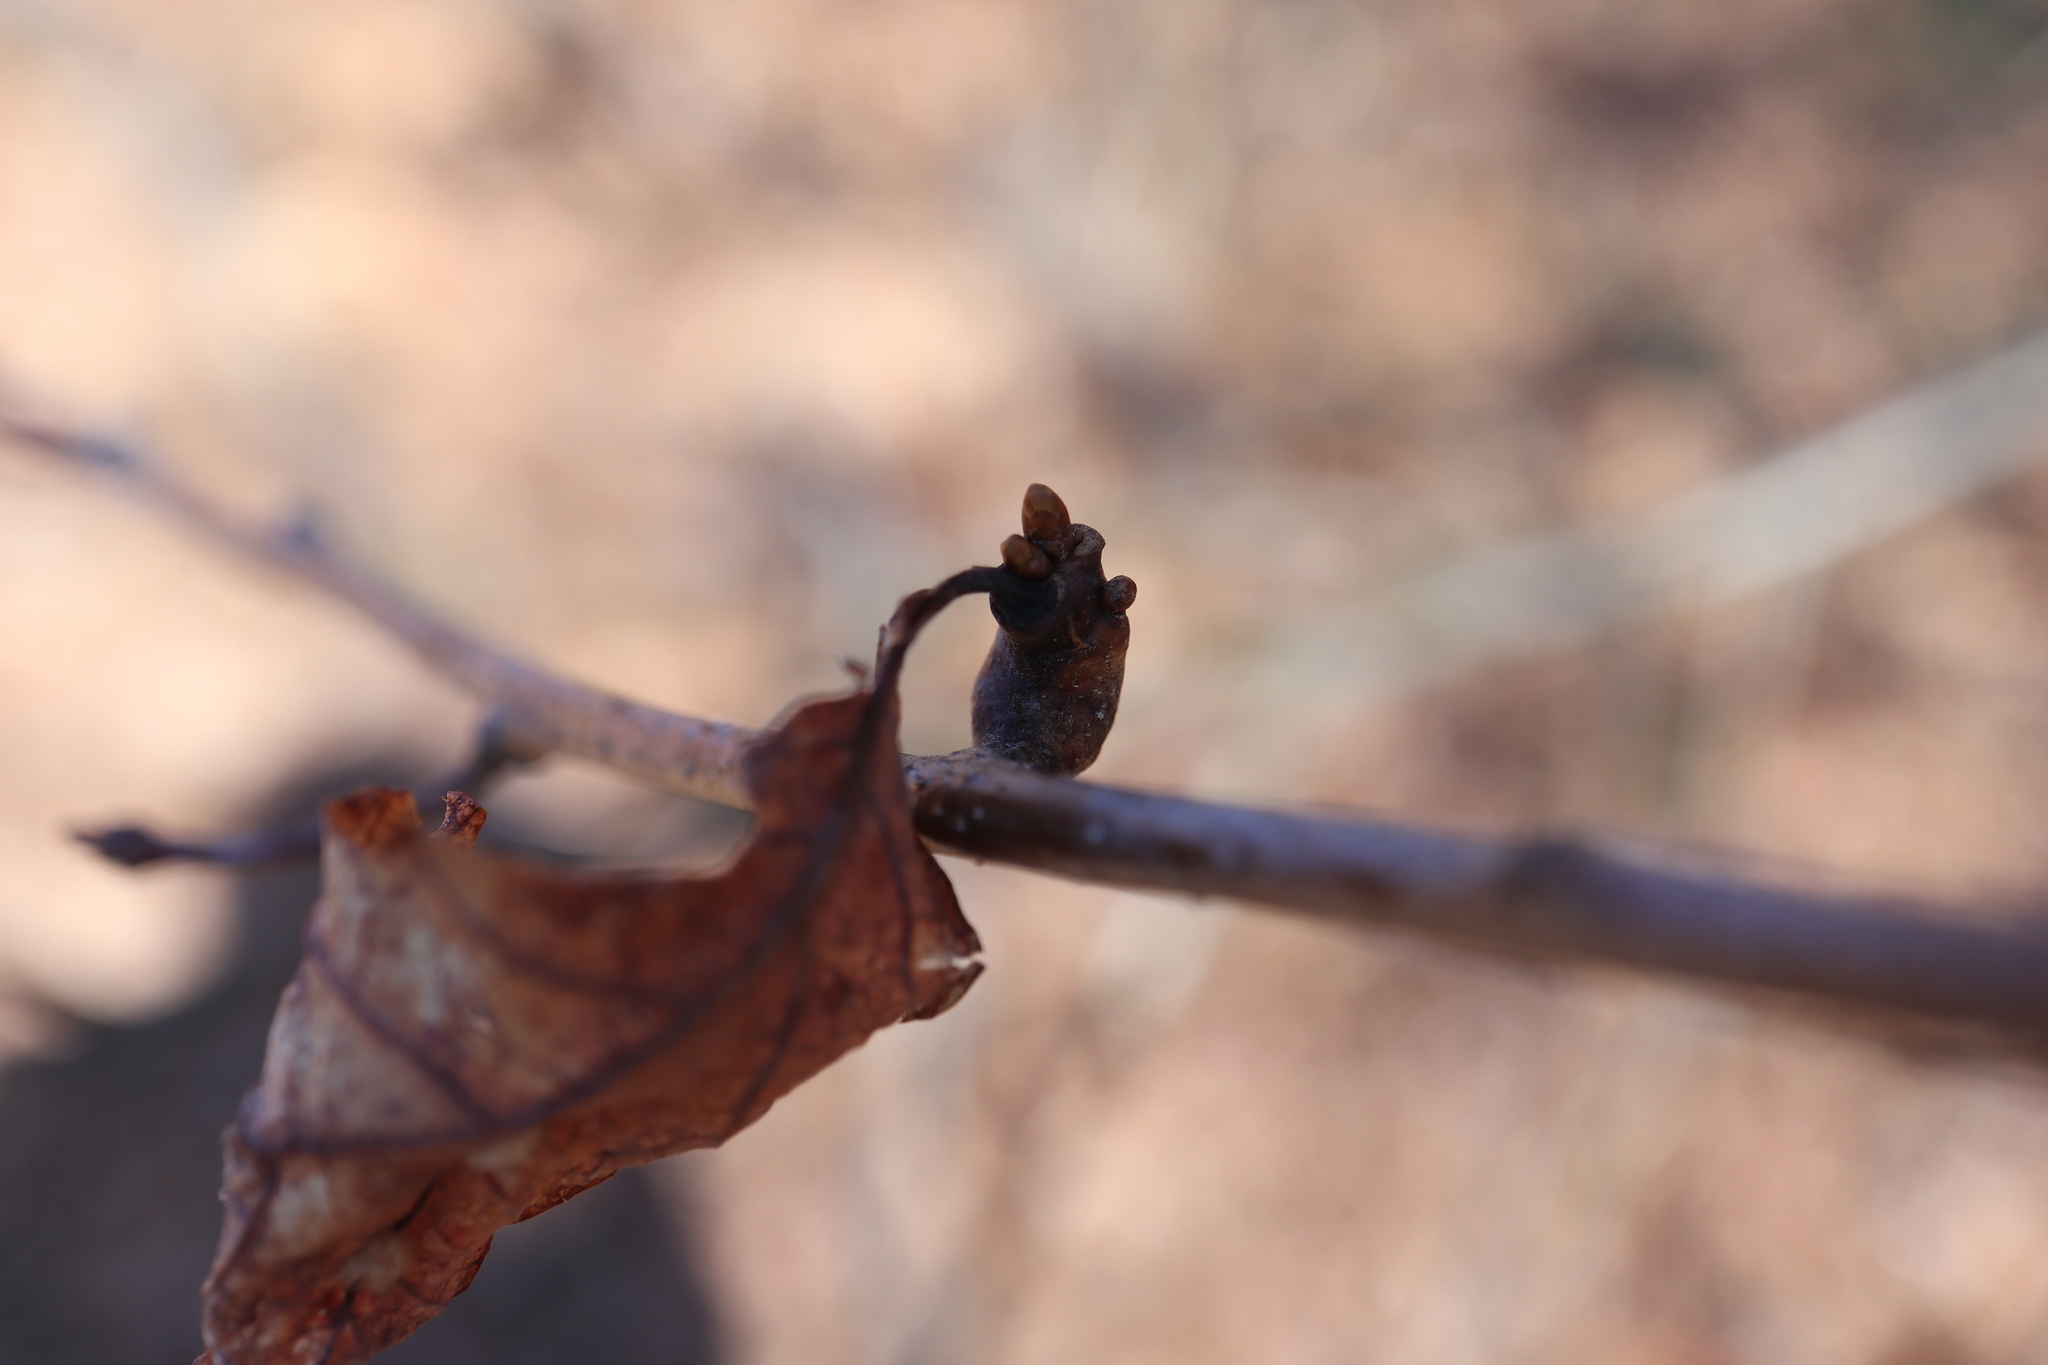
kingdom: Animalia
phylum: Arthropoda
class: Insecta
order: Hymenoptera
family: Cynipidae
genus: Neuroterus
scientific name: Neuroterus quercusbaccarum
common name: Common spangle gall
